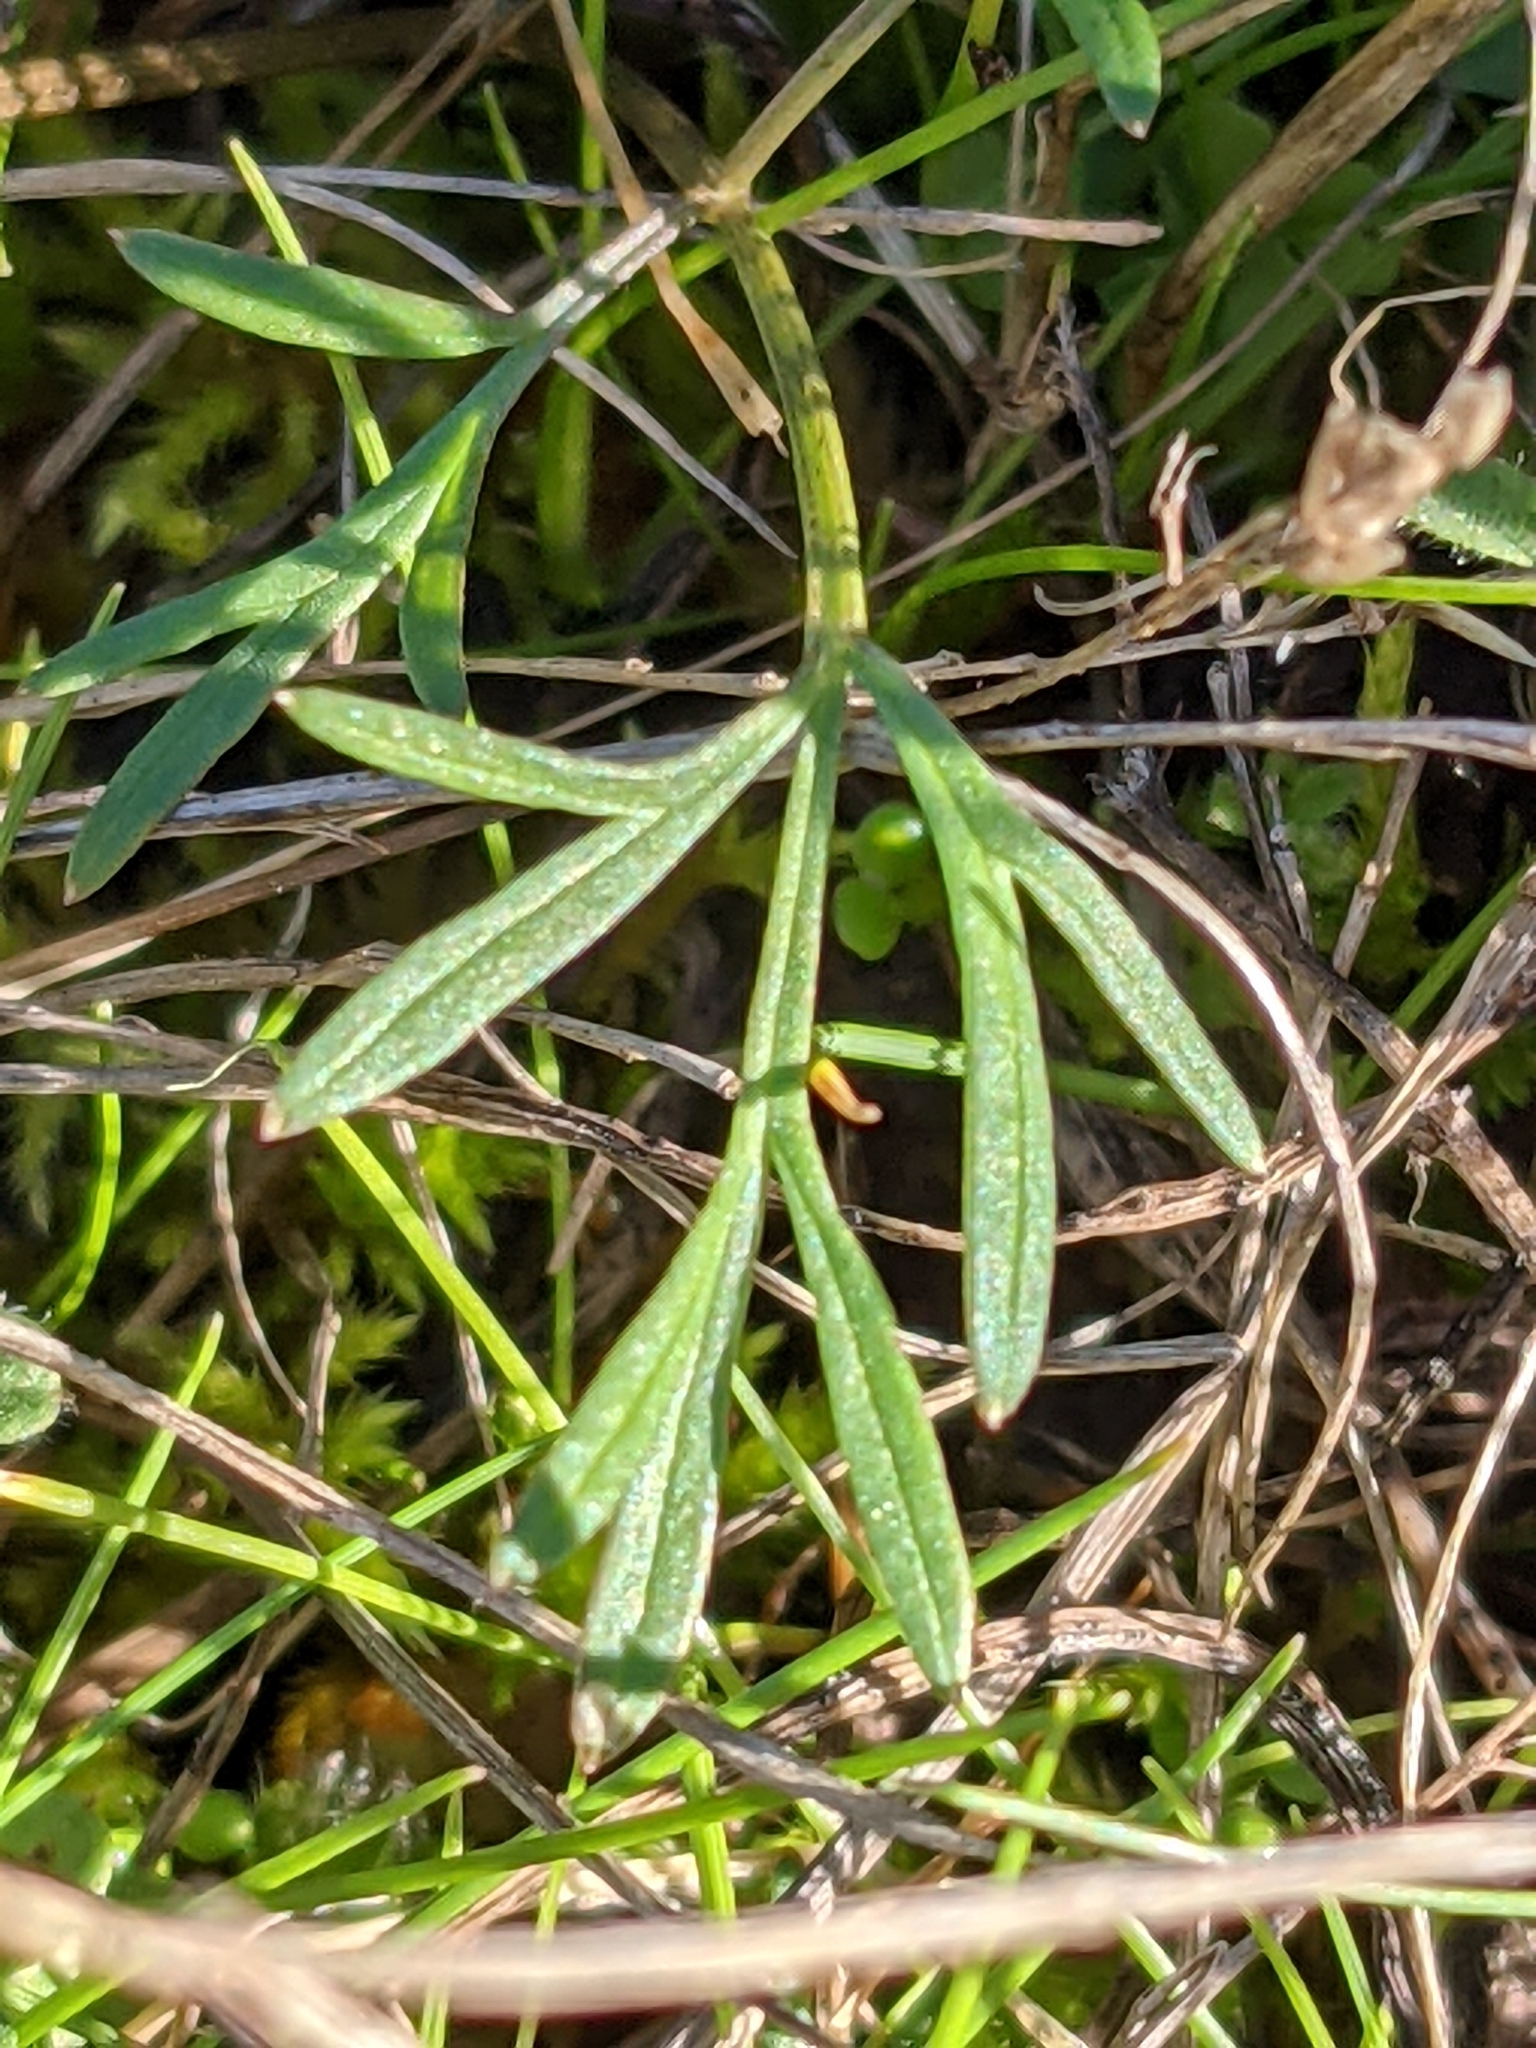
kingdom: Plantae
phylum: Tracheophyta
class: Magnoliopsida
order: Apiales
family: Apiaceae
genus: Lomatium
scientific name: Lomatium utriculatum
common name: Fine-leaf desert-parsley
